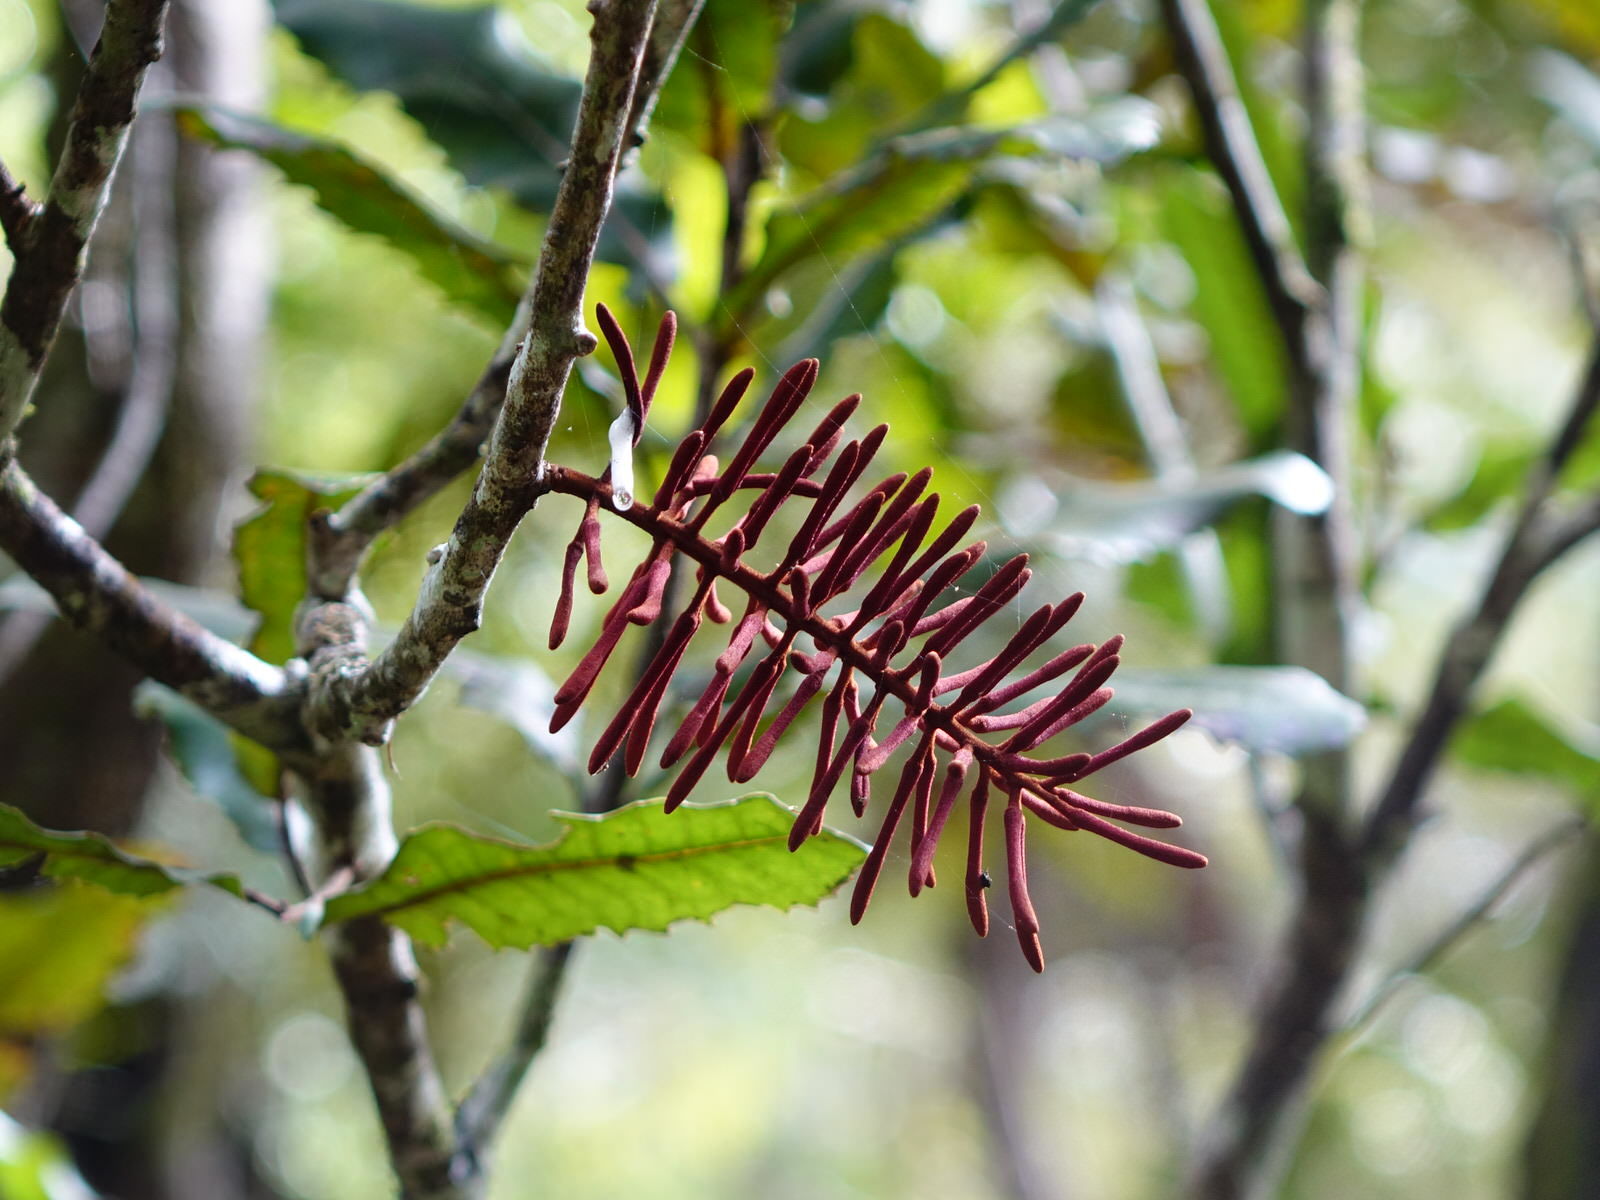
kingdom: Plantae
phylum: Tracheophyta
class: Magnoliopsida
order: Proteales
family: Proteaceae
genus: Knightia
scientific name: Knightia excelsa
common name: New zealand-honeysuckle
